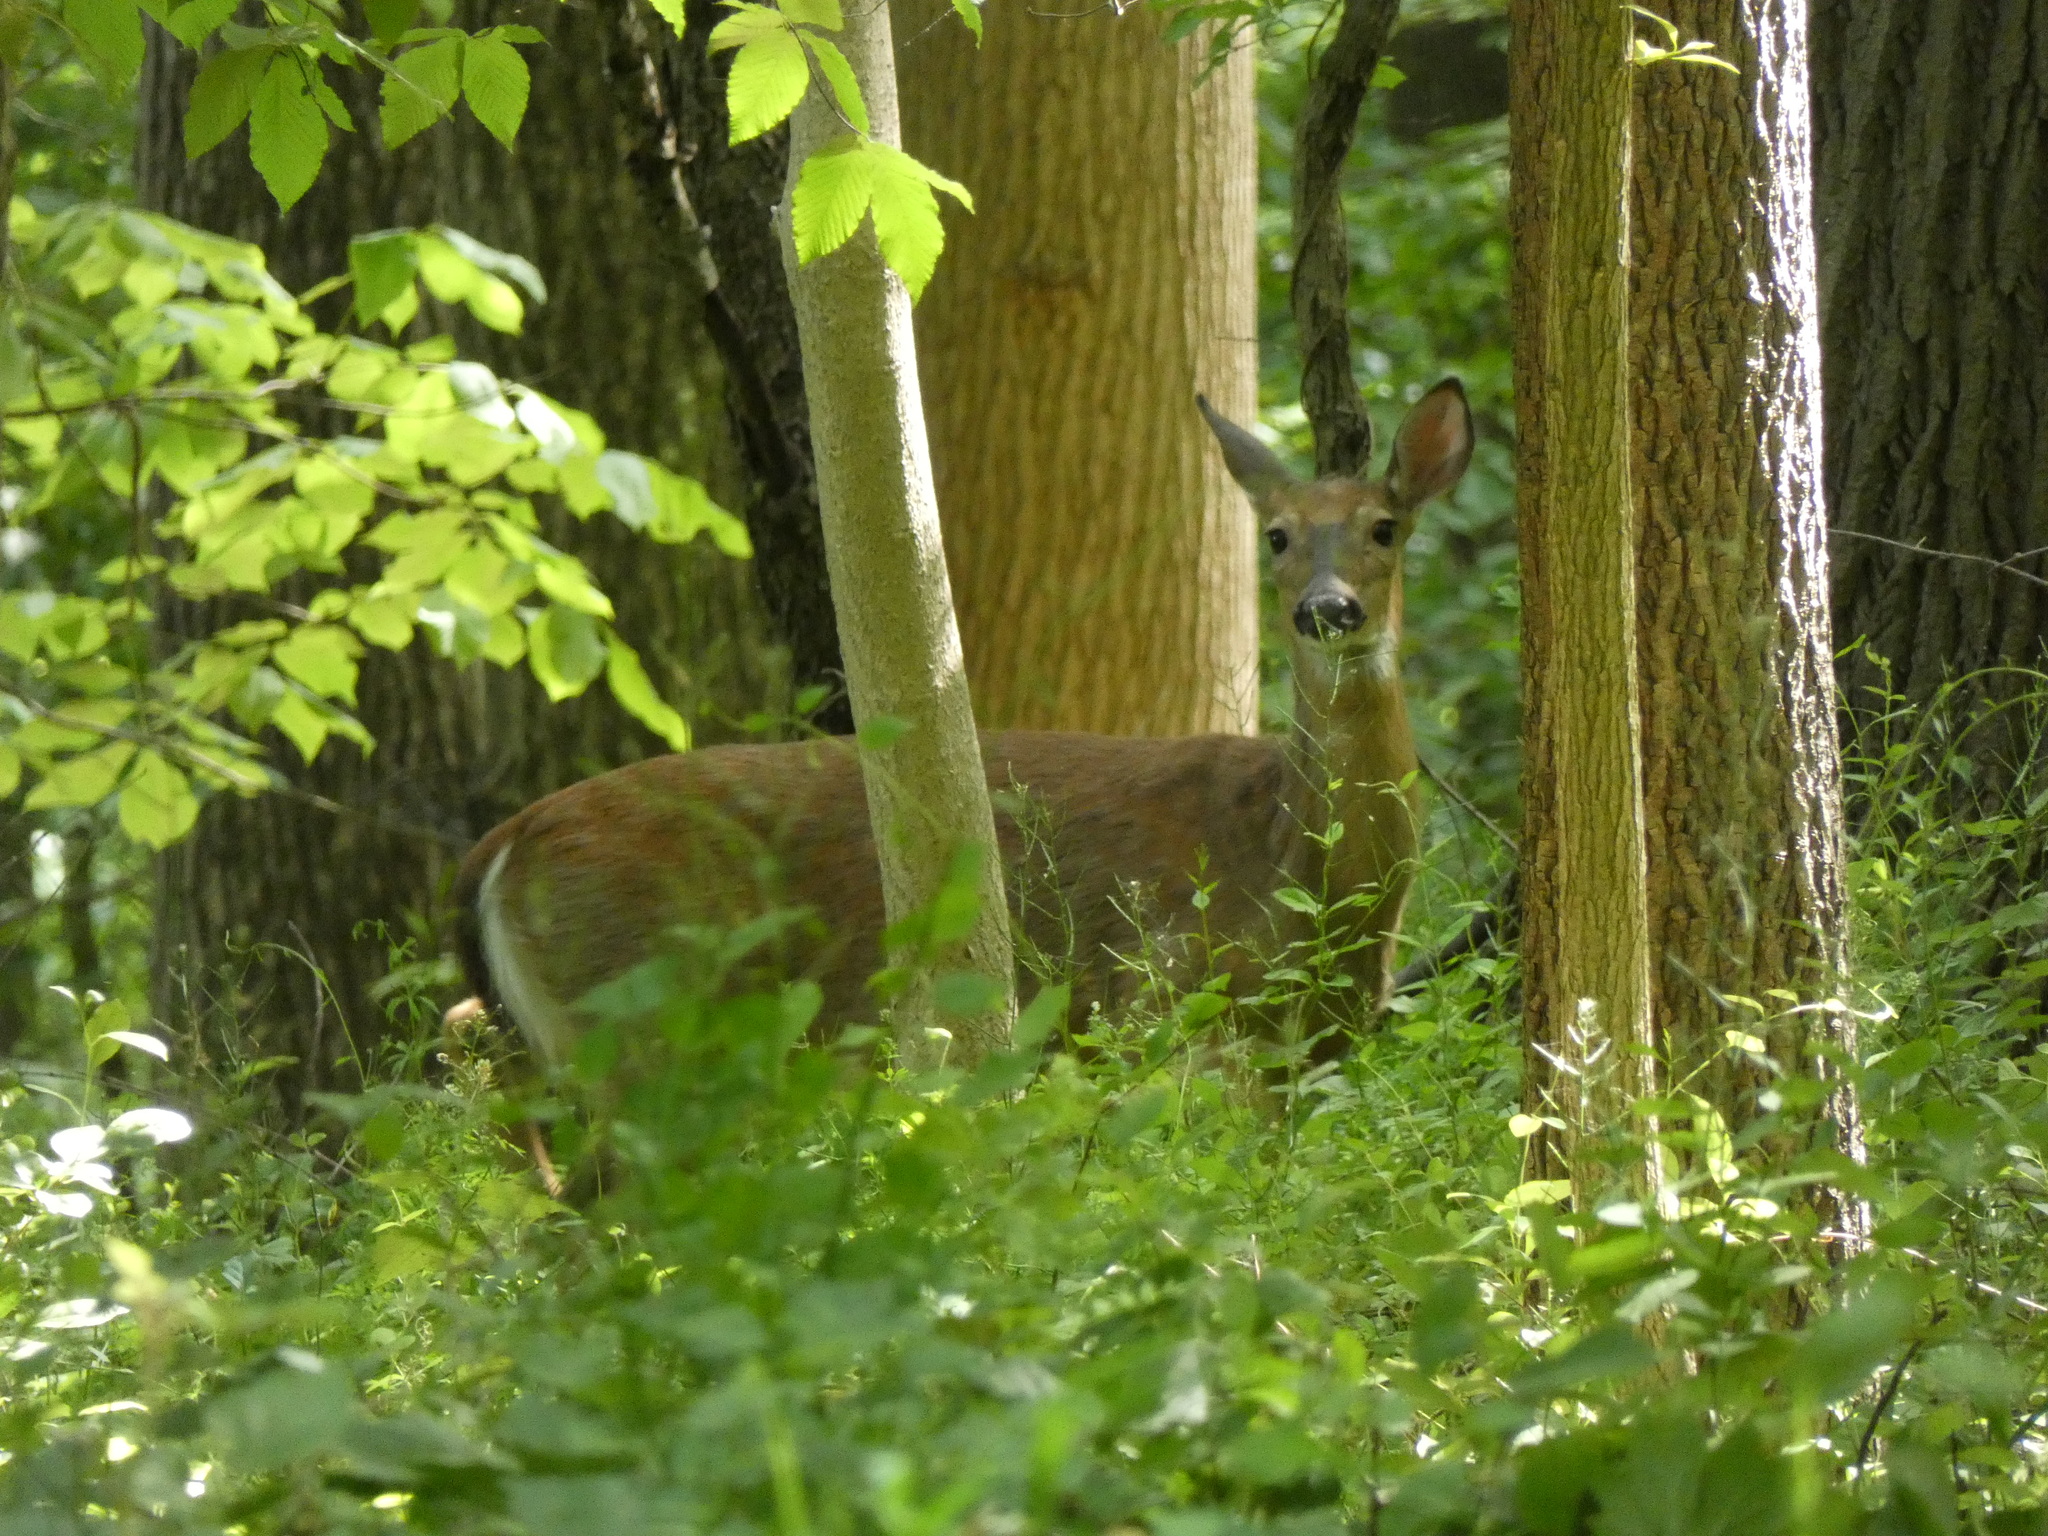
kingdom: Animalia
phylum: Chordata
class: Mammalia
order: Artiodactyla
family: Cervidae
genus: Odocoileus
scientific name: Odocoileus virginianus
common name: White-tailed deer
